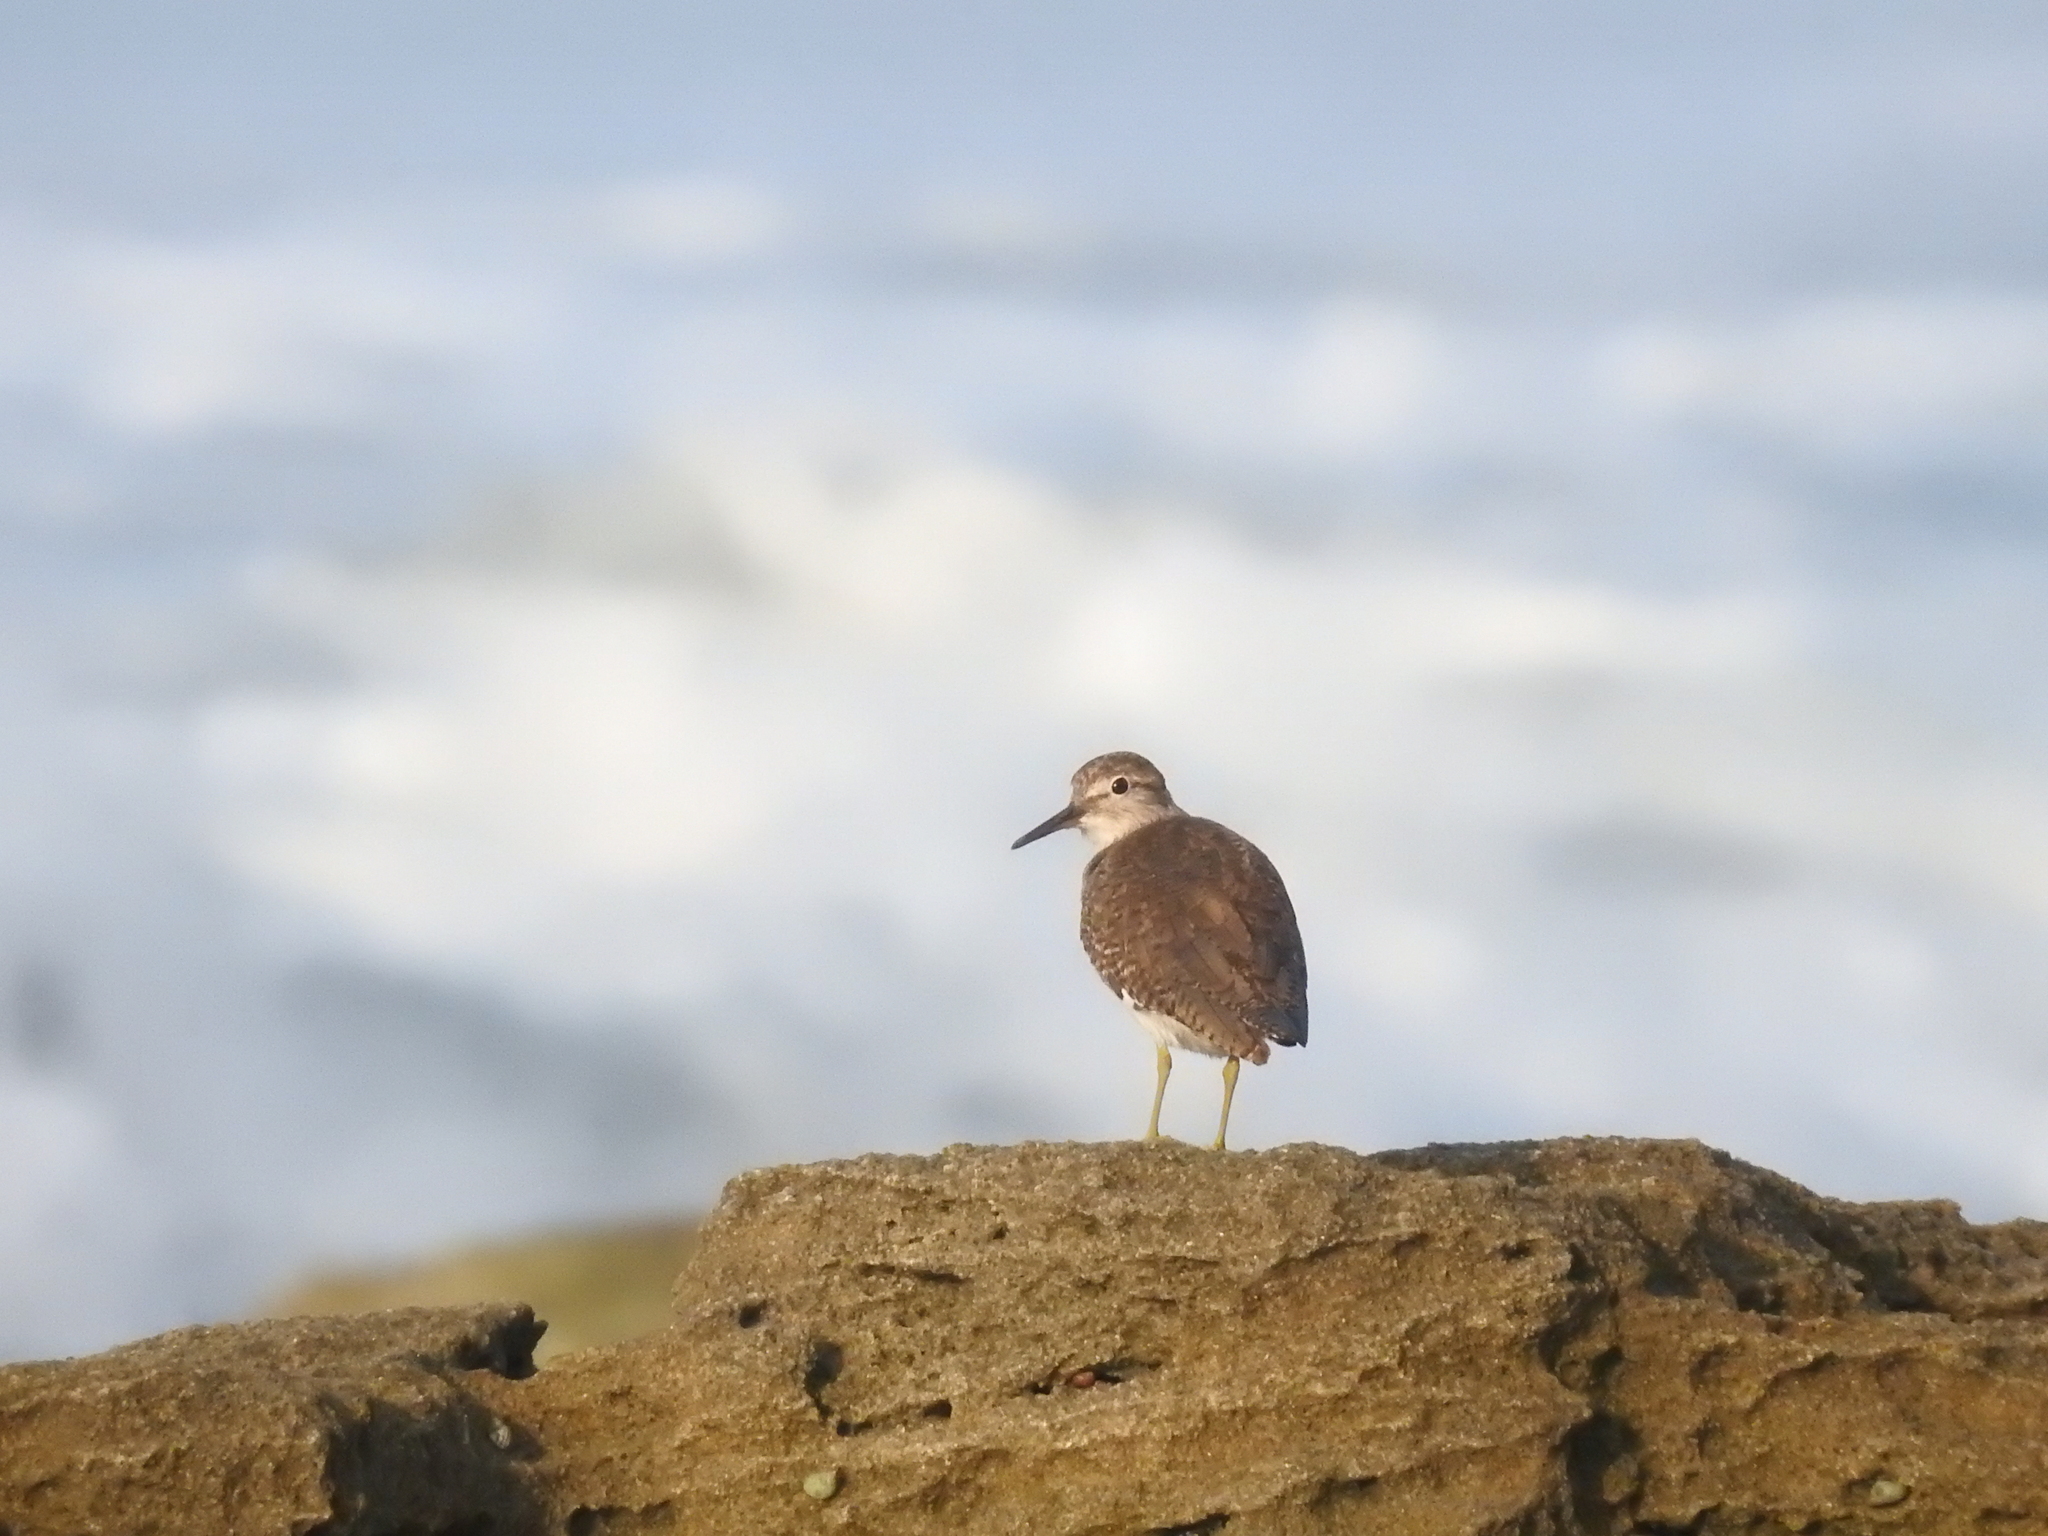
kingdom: Animalia
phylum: Chordata
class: Aves
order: Charadriiformes
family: Scolopacidae
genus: Actitis
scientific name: Actitis hypoleucos
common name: Common sandpiper
